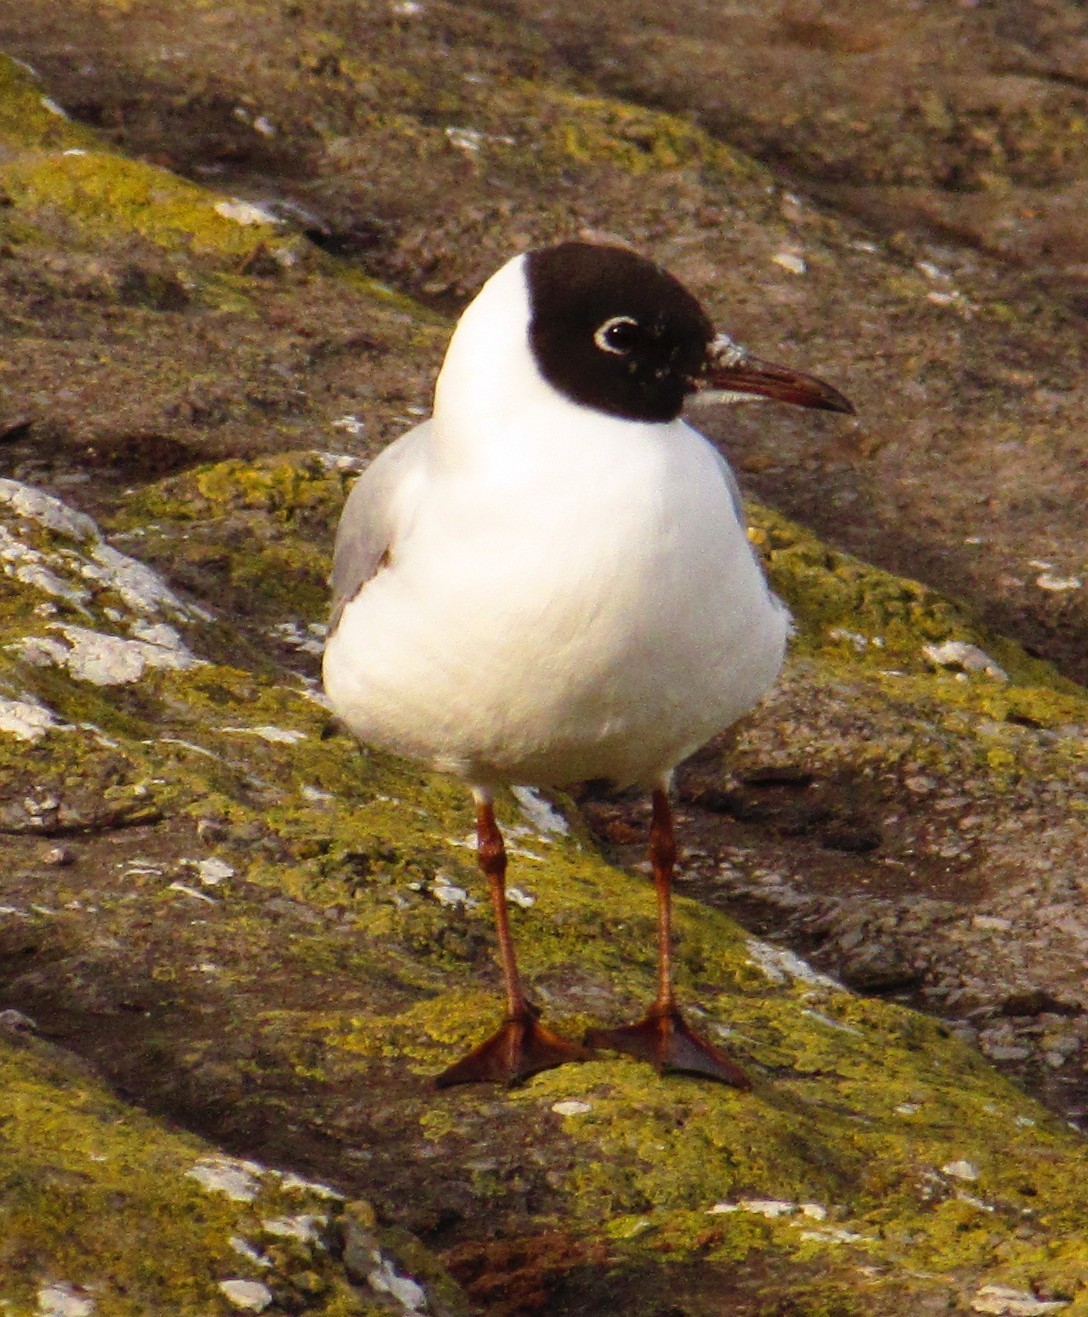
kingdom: Animalia
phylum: Chordata
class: Aves
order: Charadriiformes
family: Laridae
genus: Chroicocephalus
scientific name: Chroicocephalus ridibundus
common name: Black-headed gull
